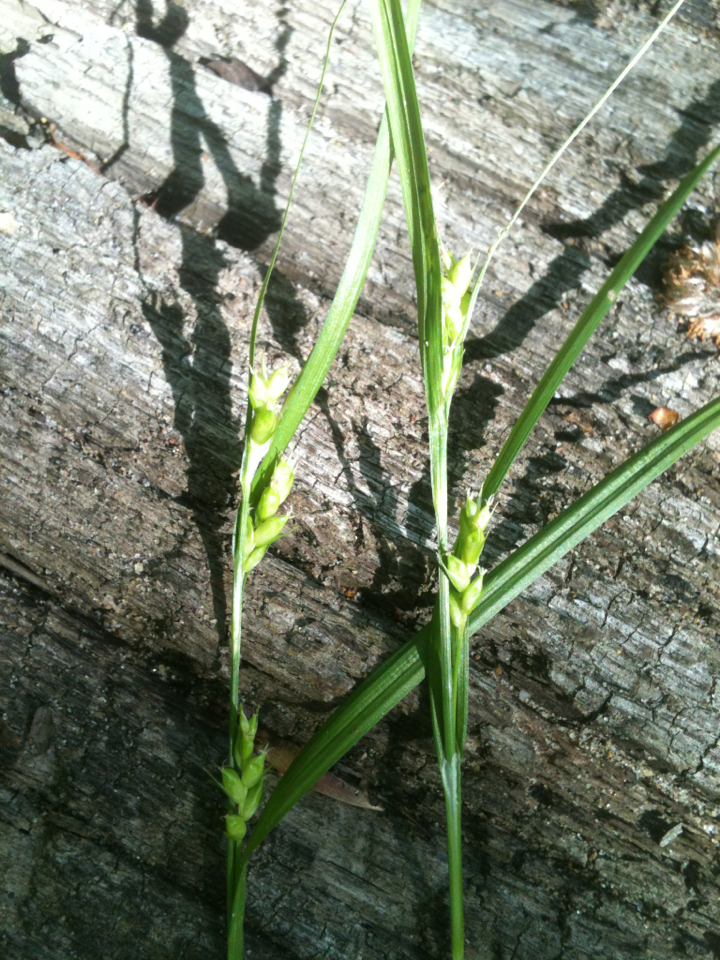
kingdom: Plantae
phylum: Tracheophyta
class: Liliopsida
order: Poales
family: Cyperaceae
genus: Carex
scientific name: Carex amphibola
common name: Amphibious sedge
